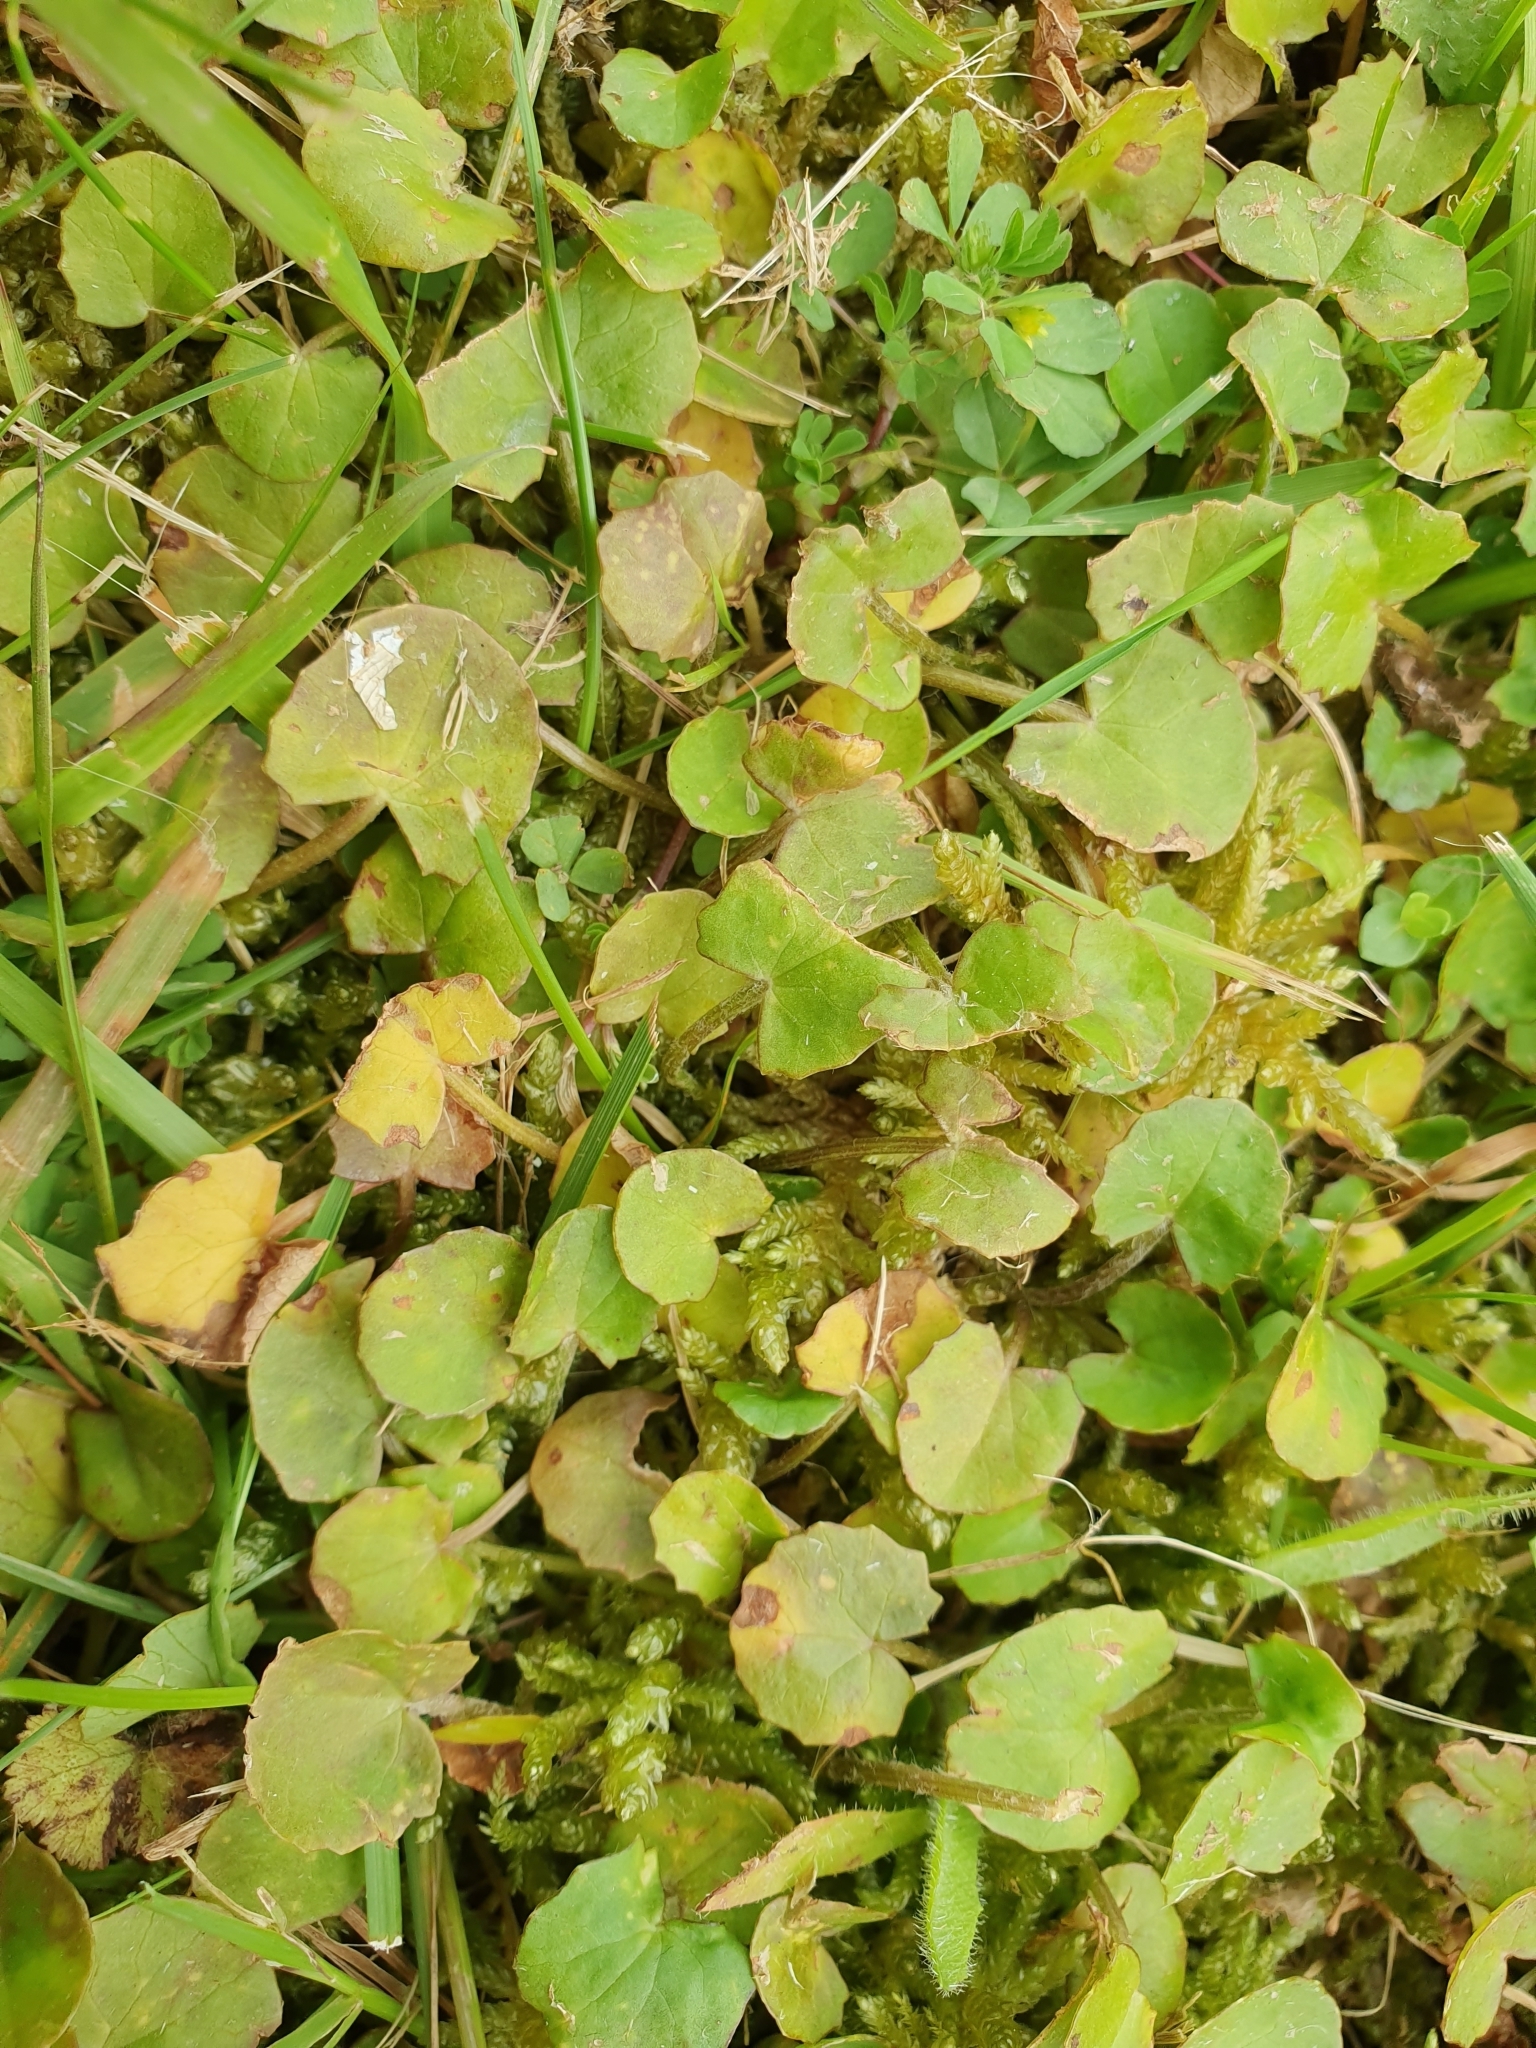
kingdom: Plantae
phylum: Tracheophyta
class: Magnoliopsida
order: Apiales
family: Apiaceae
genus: Centella
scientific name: Centella uniflora
